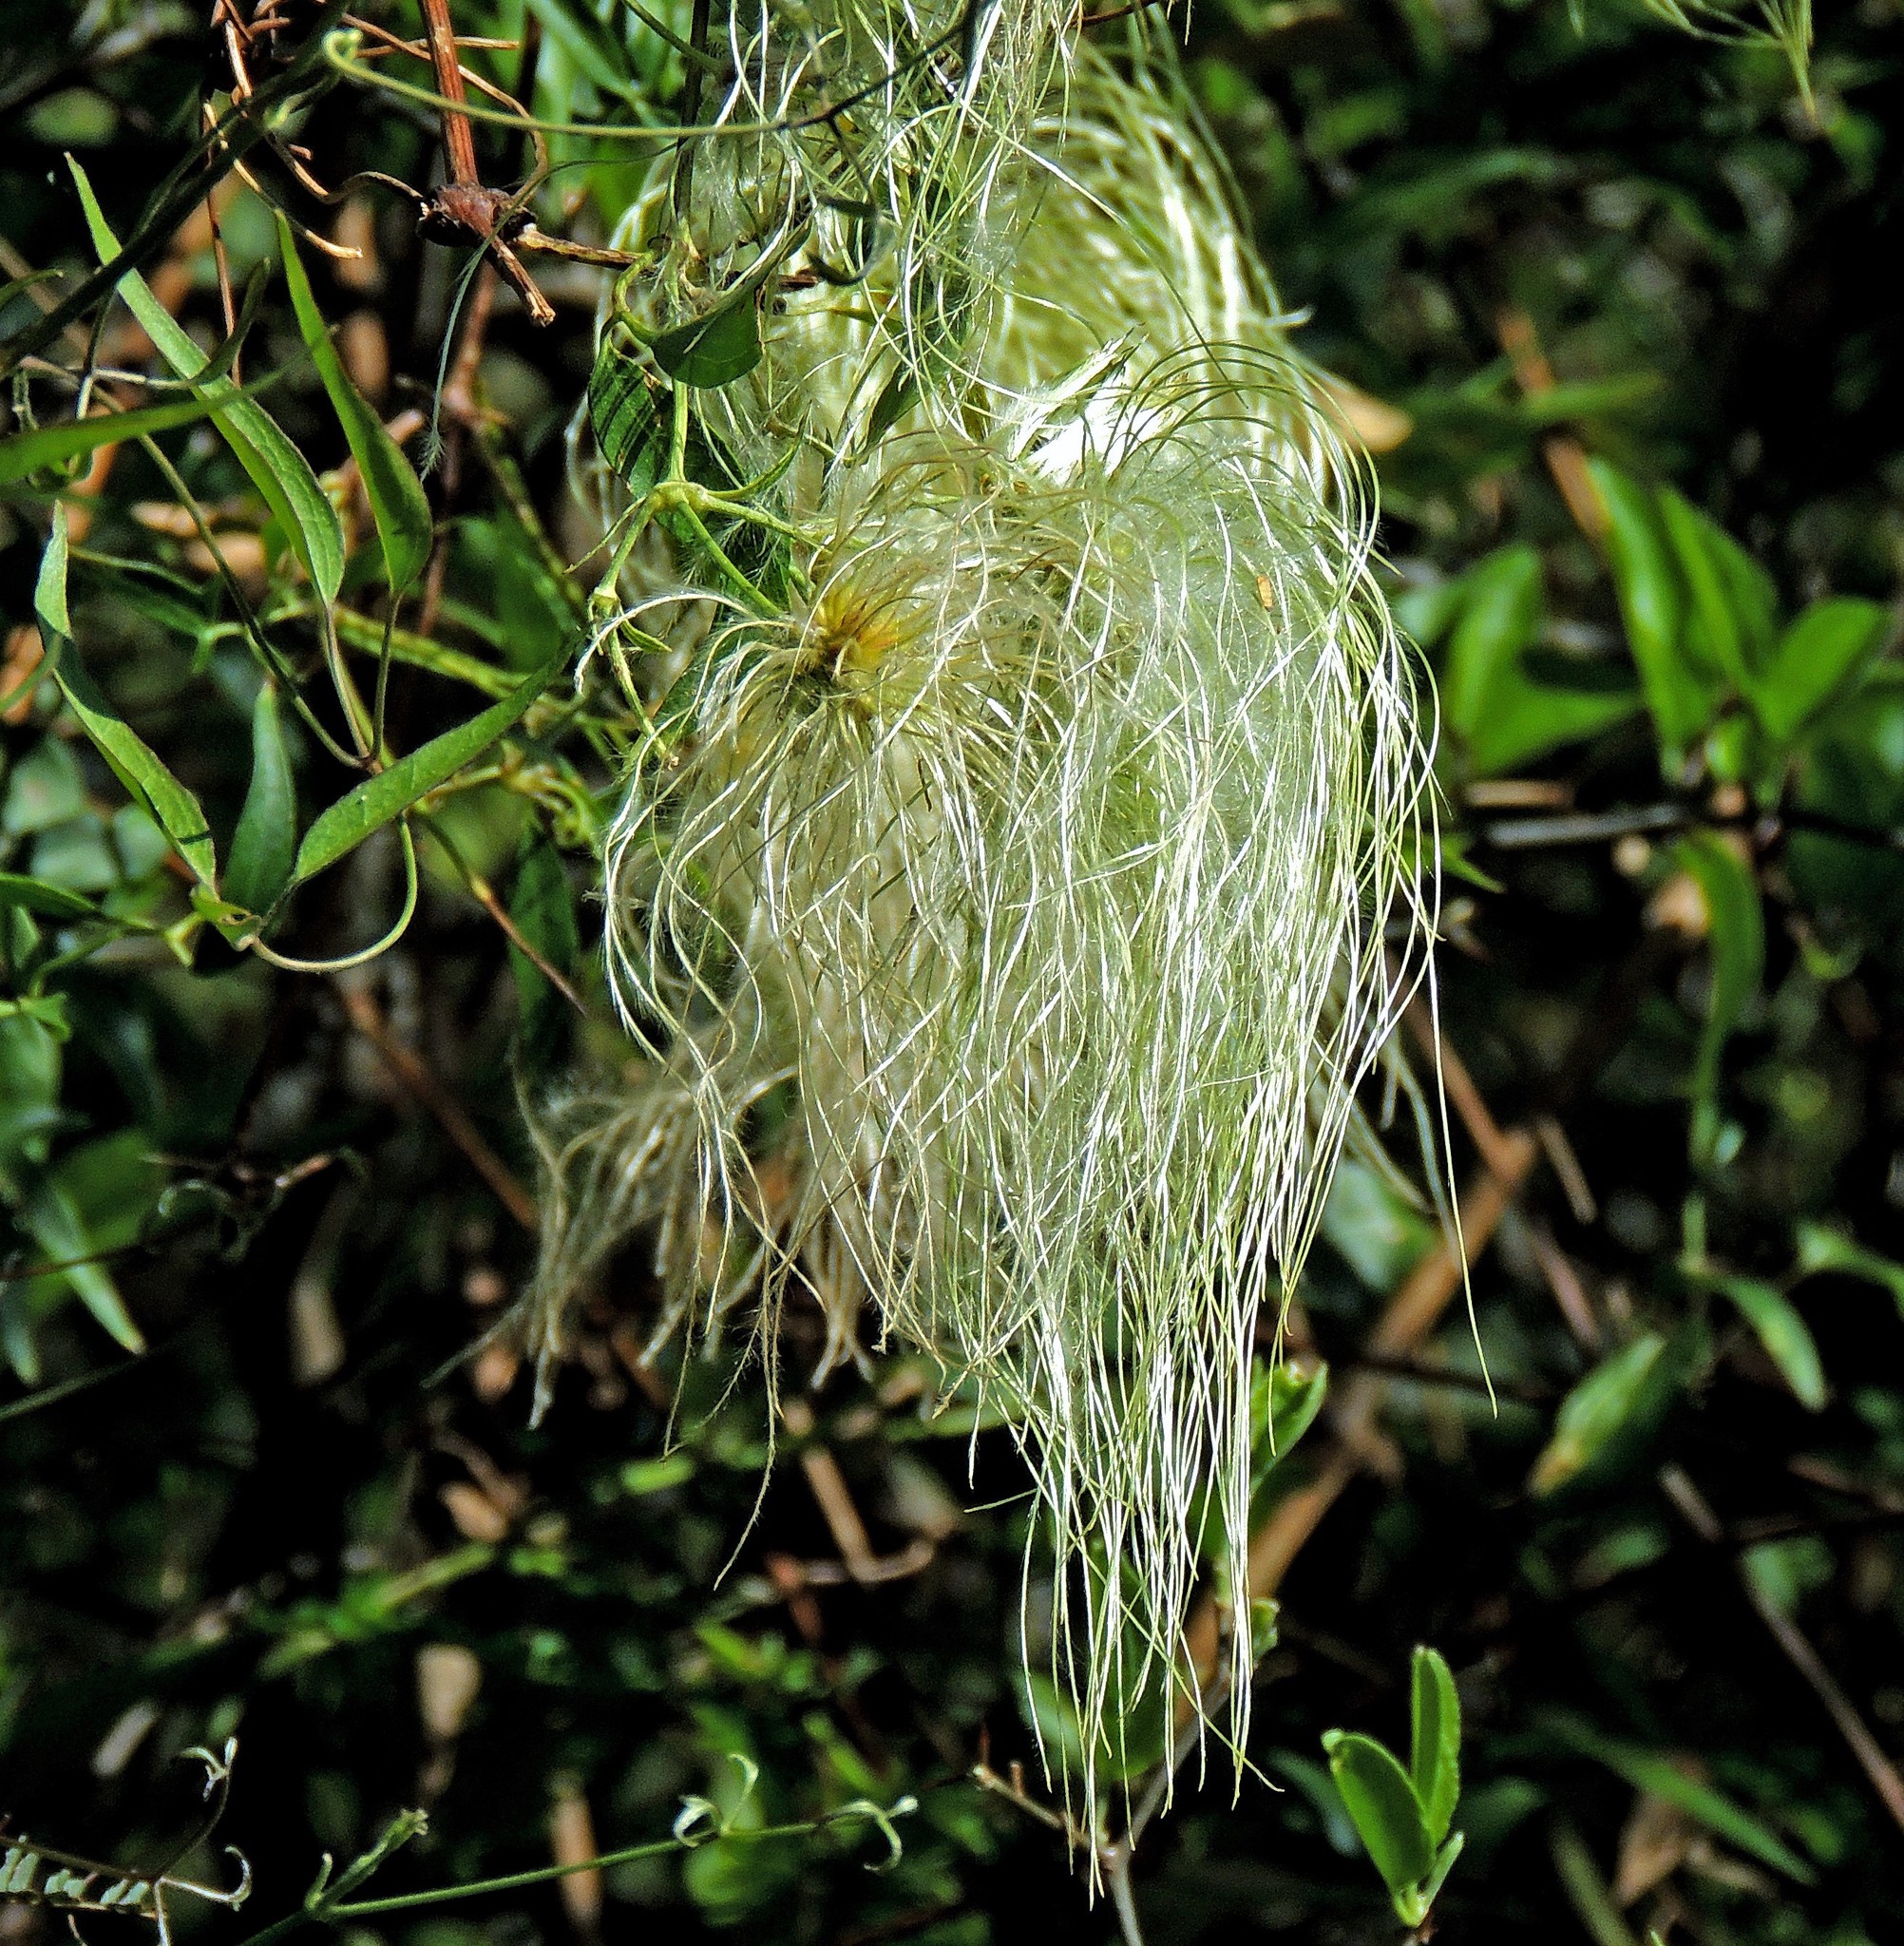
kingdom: Plantae
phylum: Tracheophyta
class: Magnoliopsida
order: Ranunculales
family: Ranunculaceae
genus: Clematis
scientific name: Clematis montevidensis
